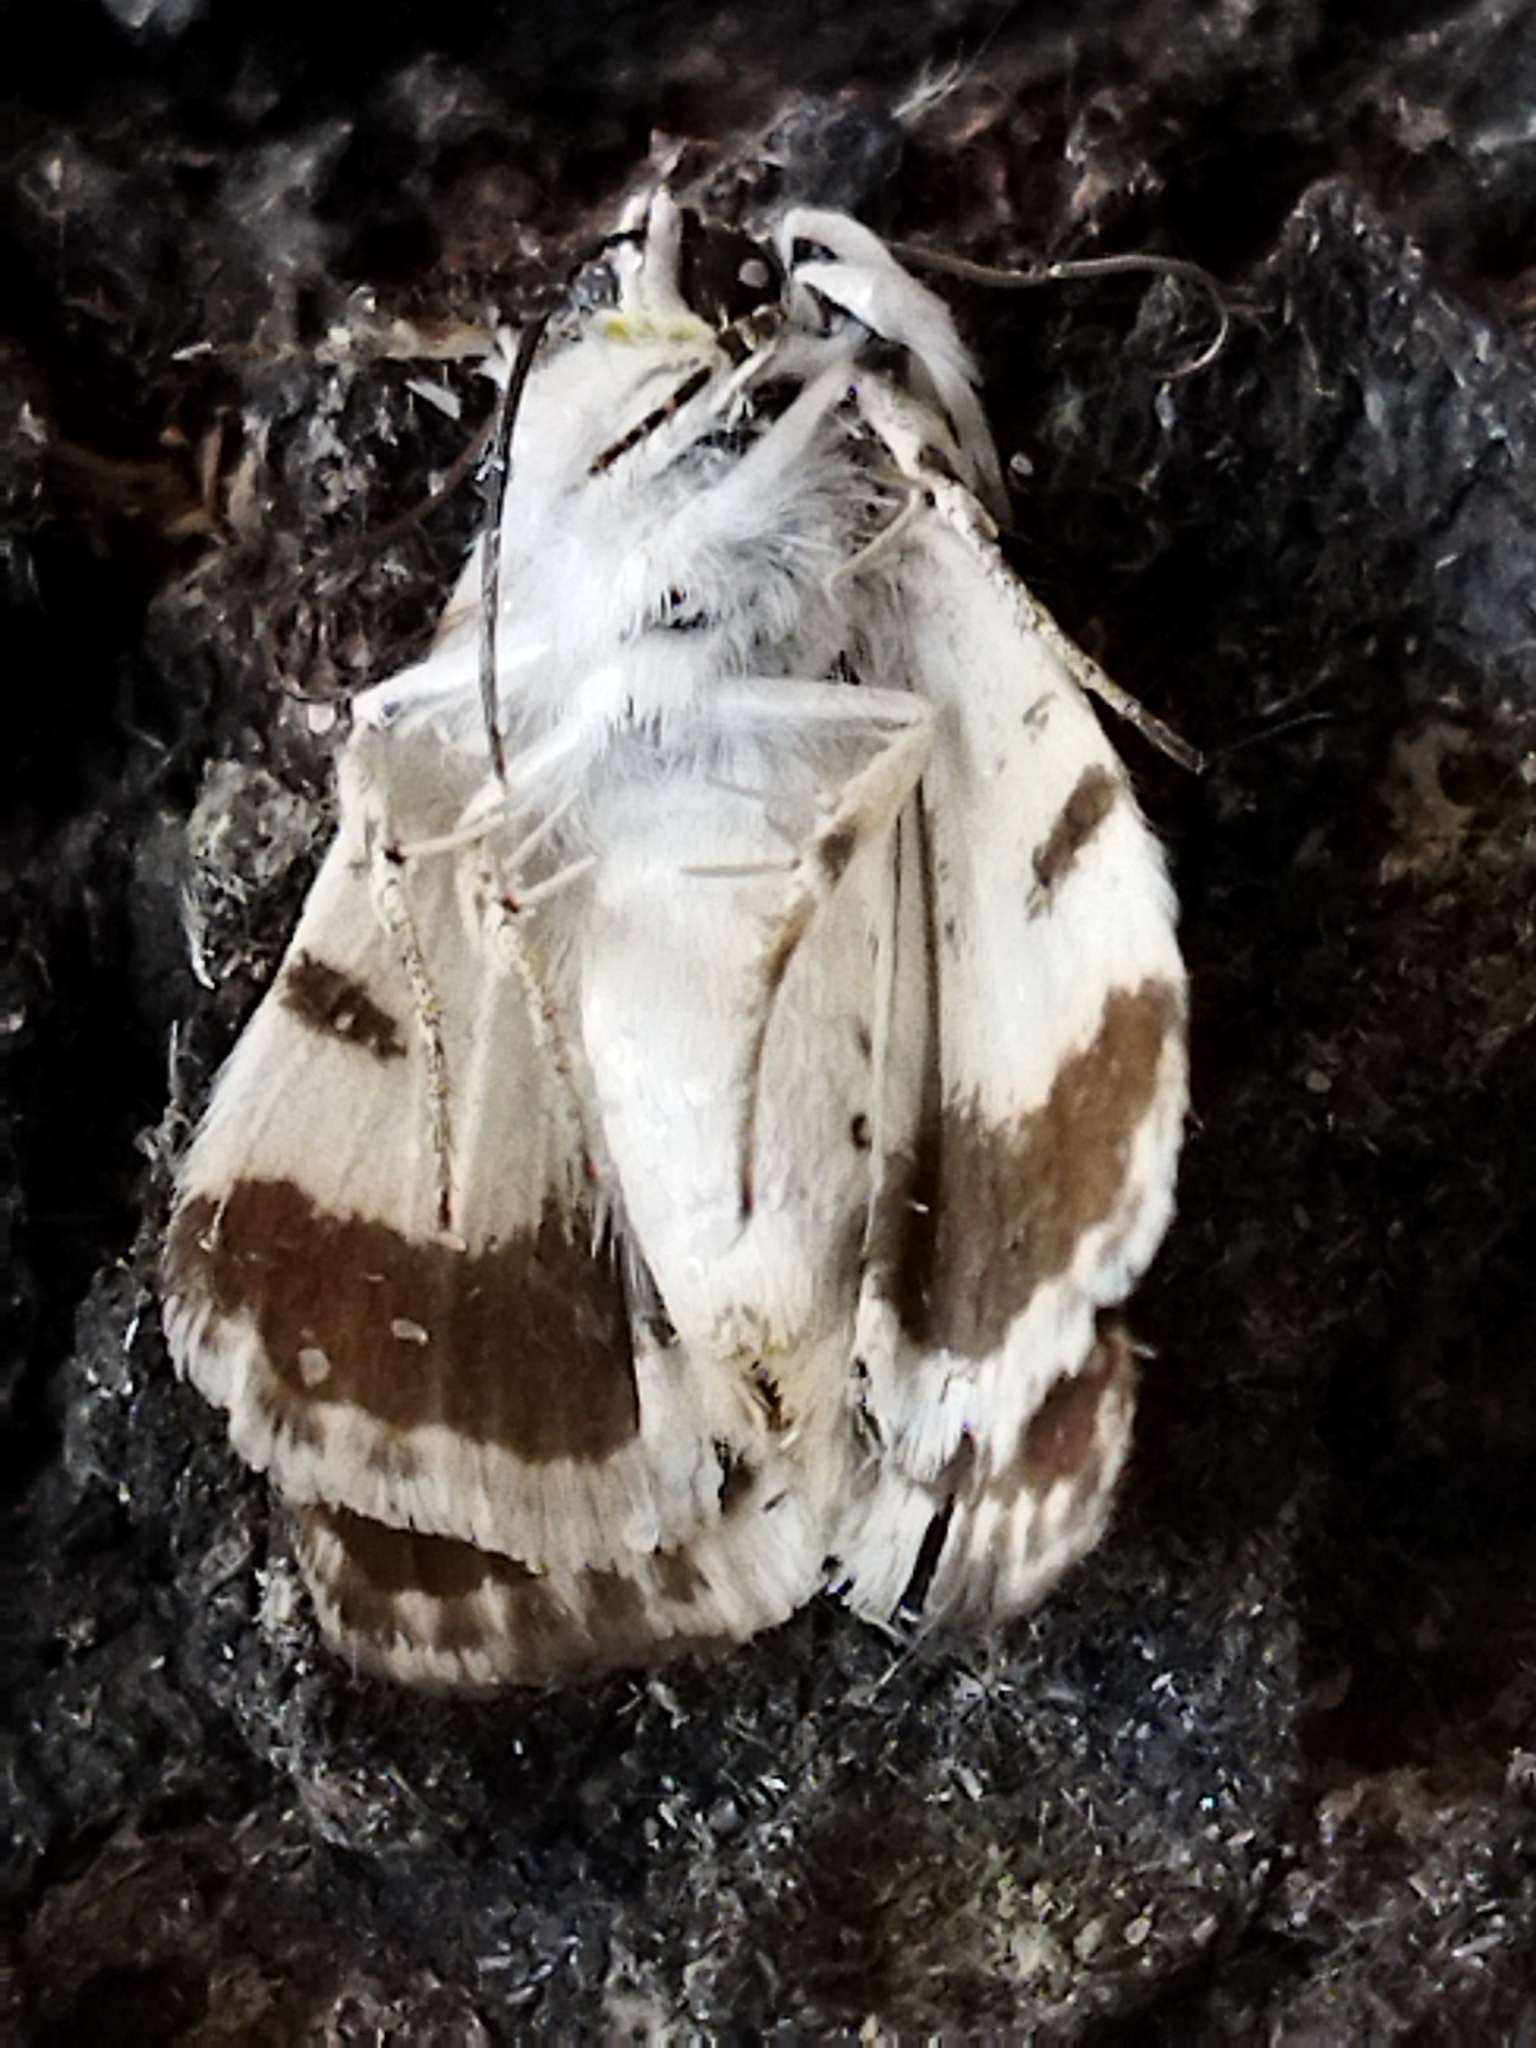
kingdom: Animalia
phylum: Arthropoda
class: Insecta
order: Lepidoptera
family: Noctuidae
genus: Acontia
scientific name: Acontia lucida
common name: Pale shoulder
